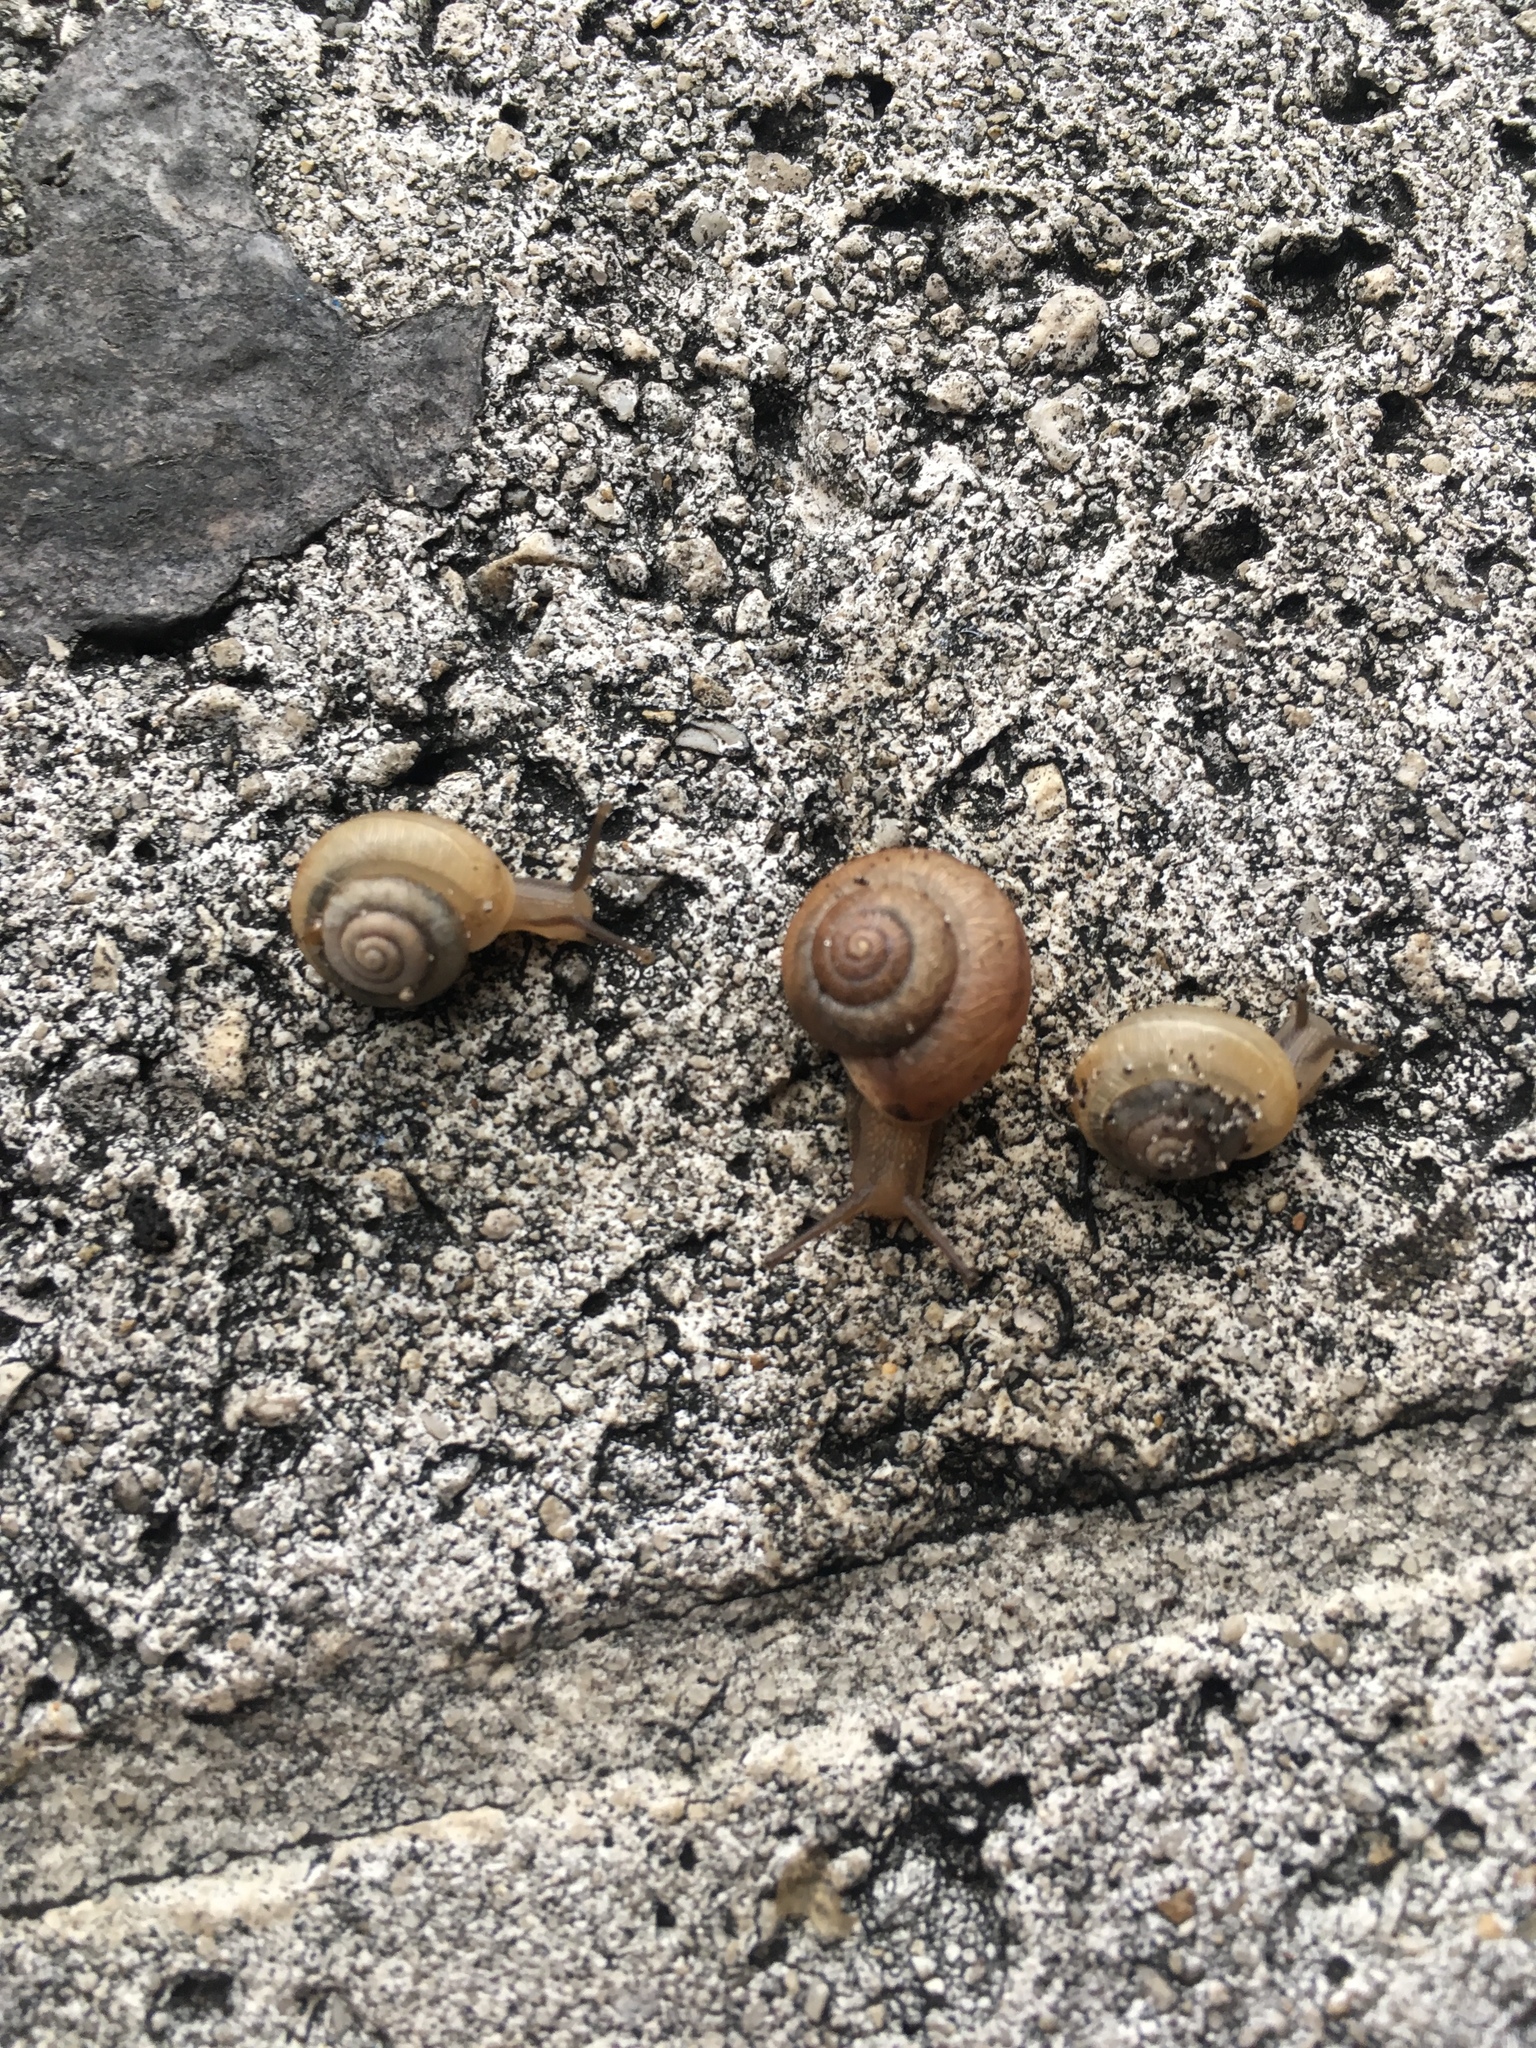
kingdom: Animalia
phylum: Mollusca
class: Gastropoda
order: Stylommatophora
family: Camaenidae
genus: Bradybaena
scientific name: Bradybaena similaris
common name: Asian trampsnail
